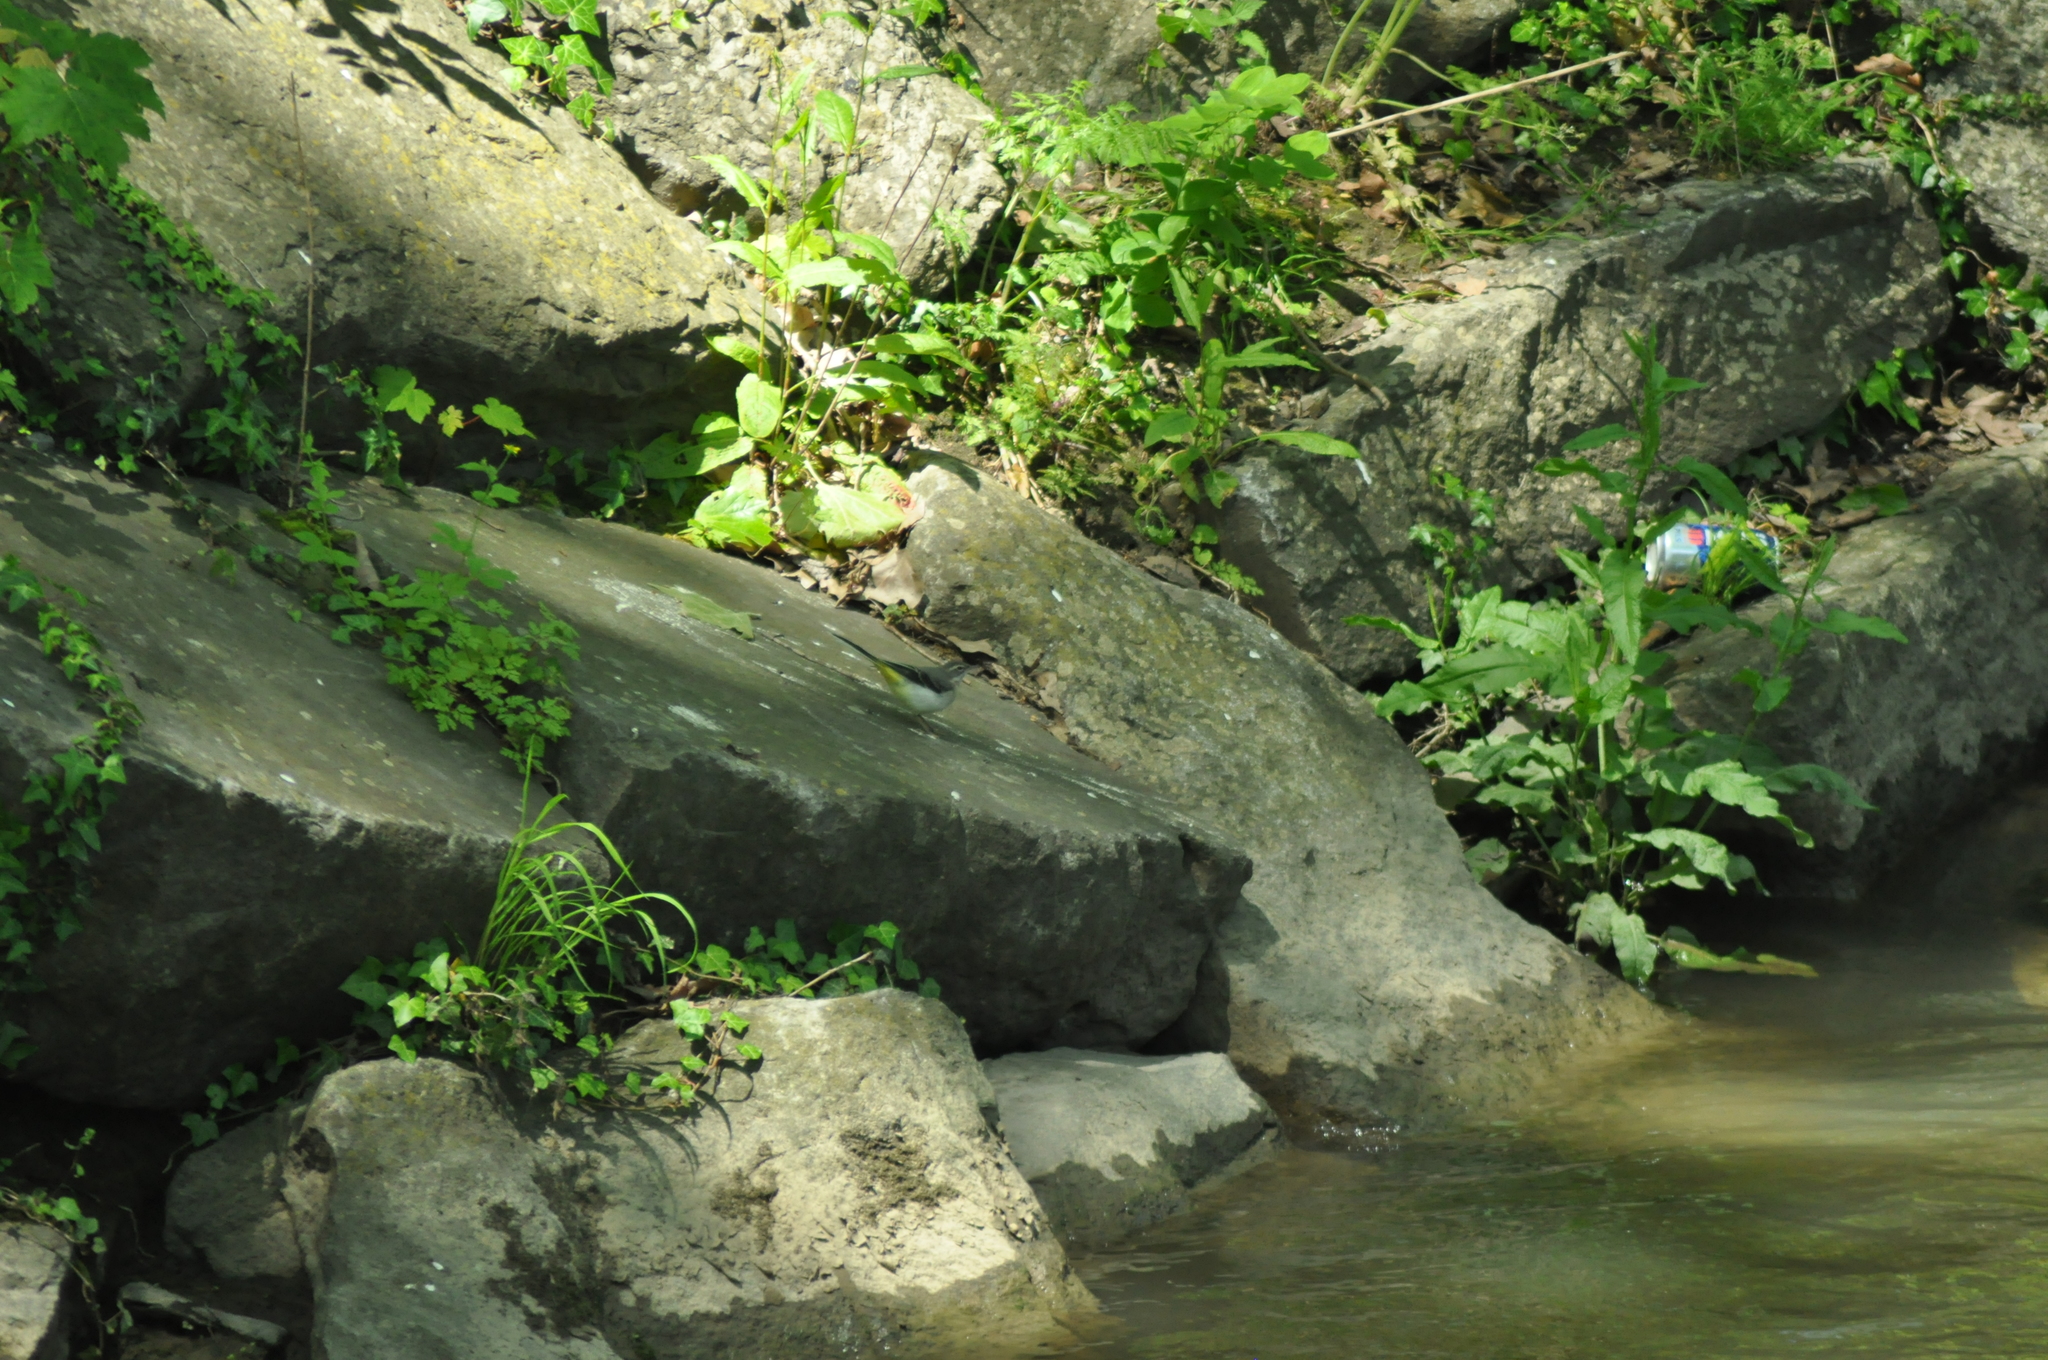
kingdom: Animalia
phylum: Chordata
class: Aves
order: Passeriformes
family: Motacillidae
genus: Motacilla
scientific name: Motacilla cinerea
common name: Grey wagtail
